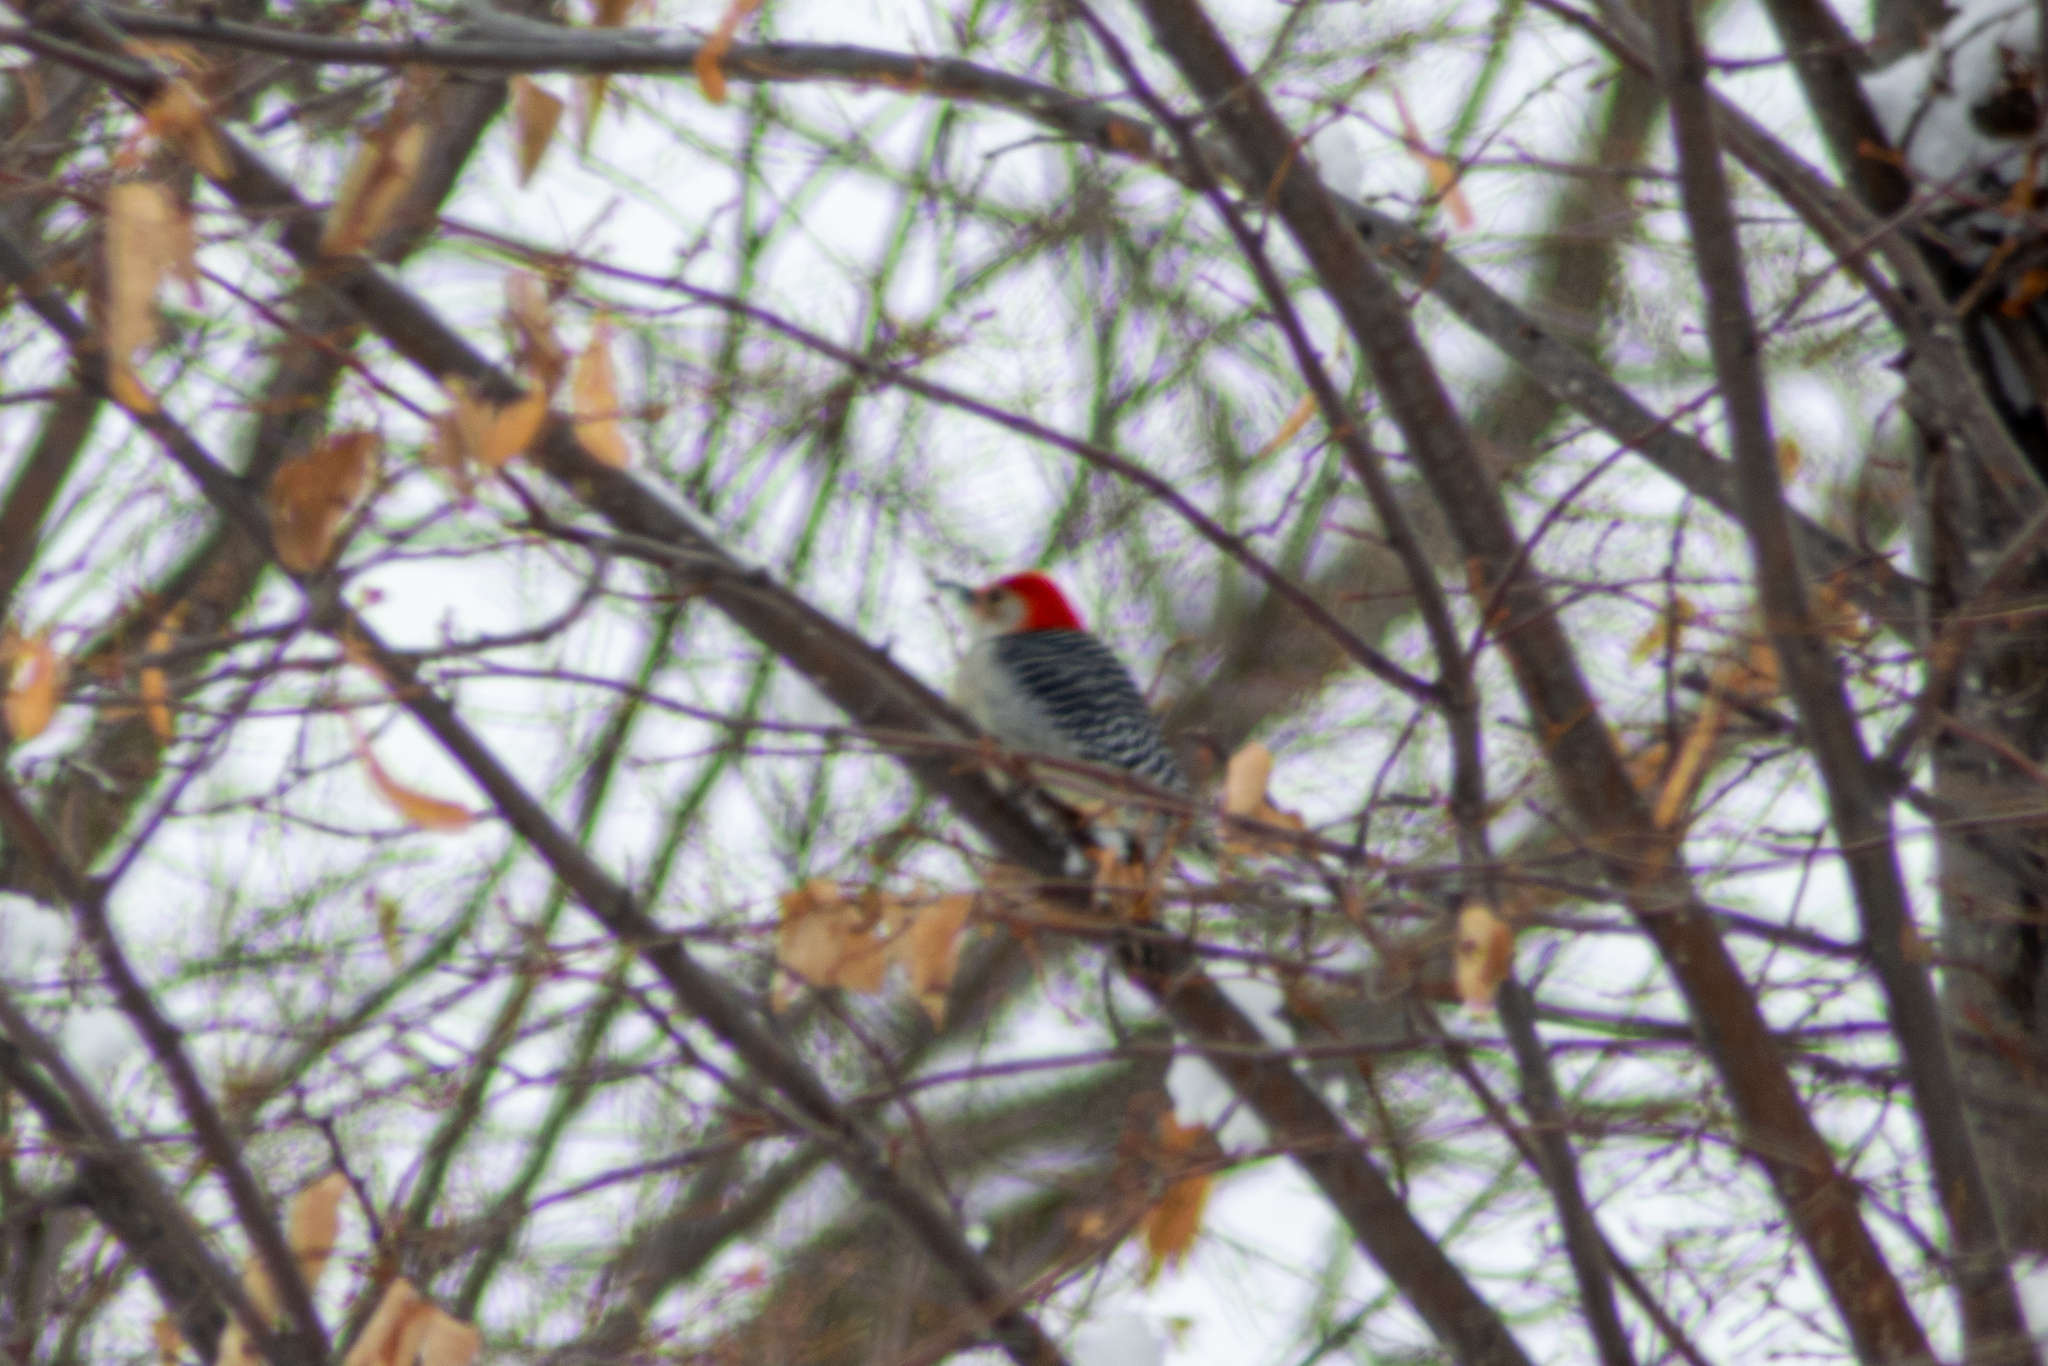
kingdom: Animalia
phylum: Chordata
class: Aves
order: Piciformes
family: Picidae
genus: Melanerpes
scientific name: Melanerpes carolinus
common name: Red-bellied woodpecker
